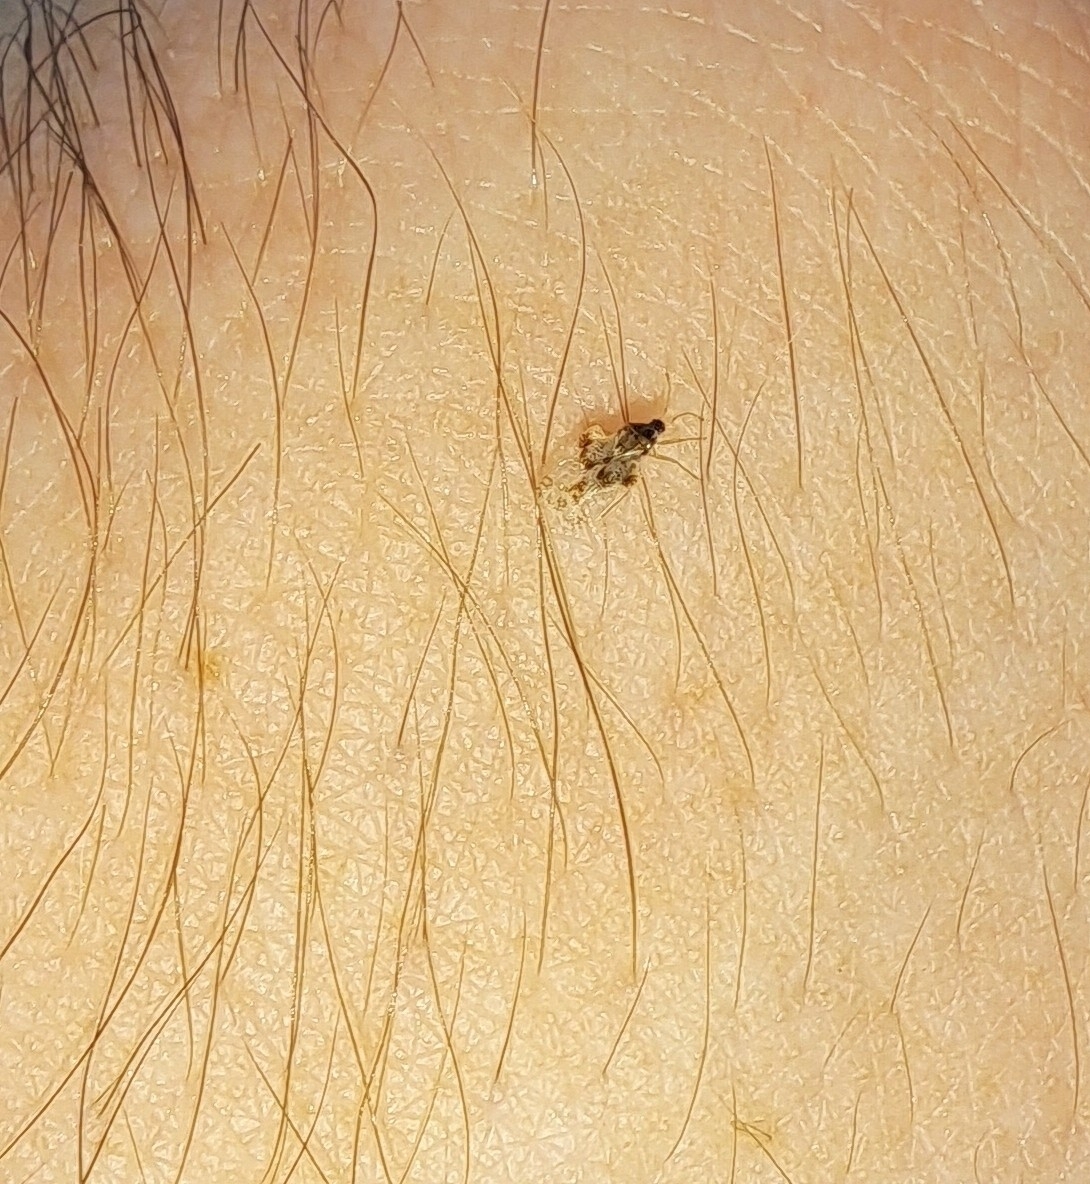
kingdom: Animalia
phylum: Arthropoda
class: Insecta
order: Hemiptera
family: Tingidae
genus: Corythucha
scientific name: Corythucha arcuata
